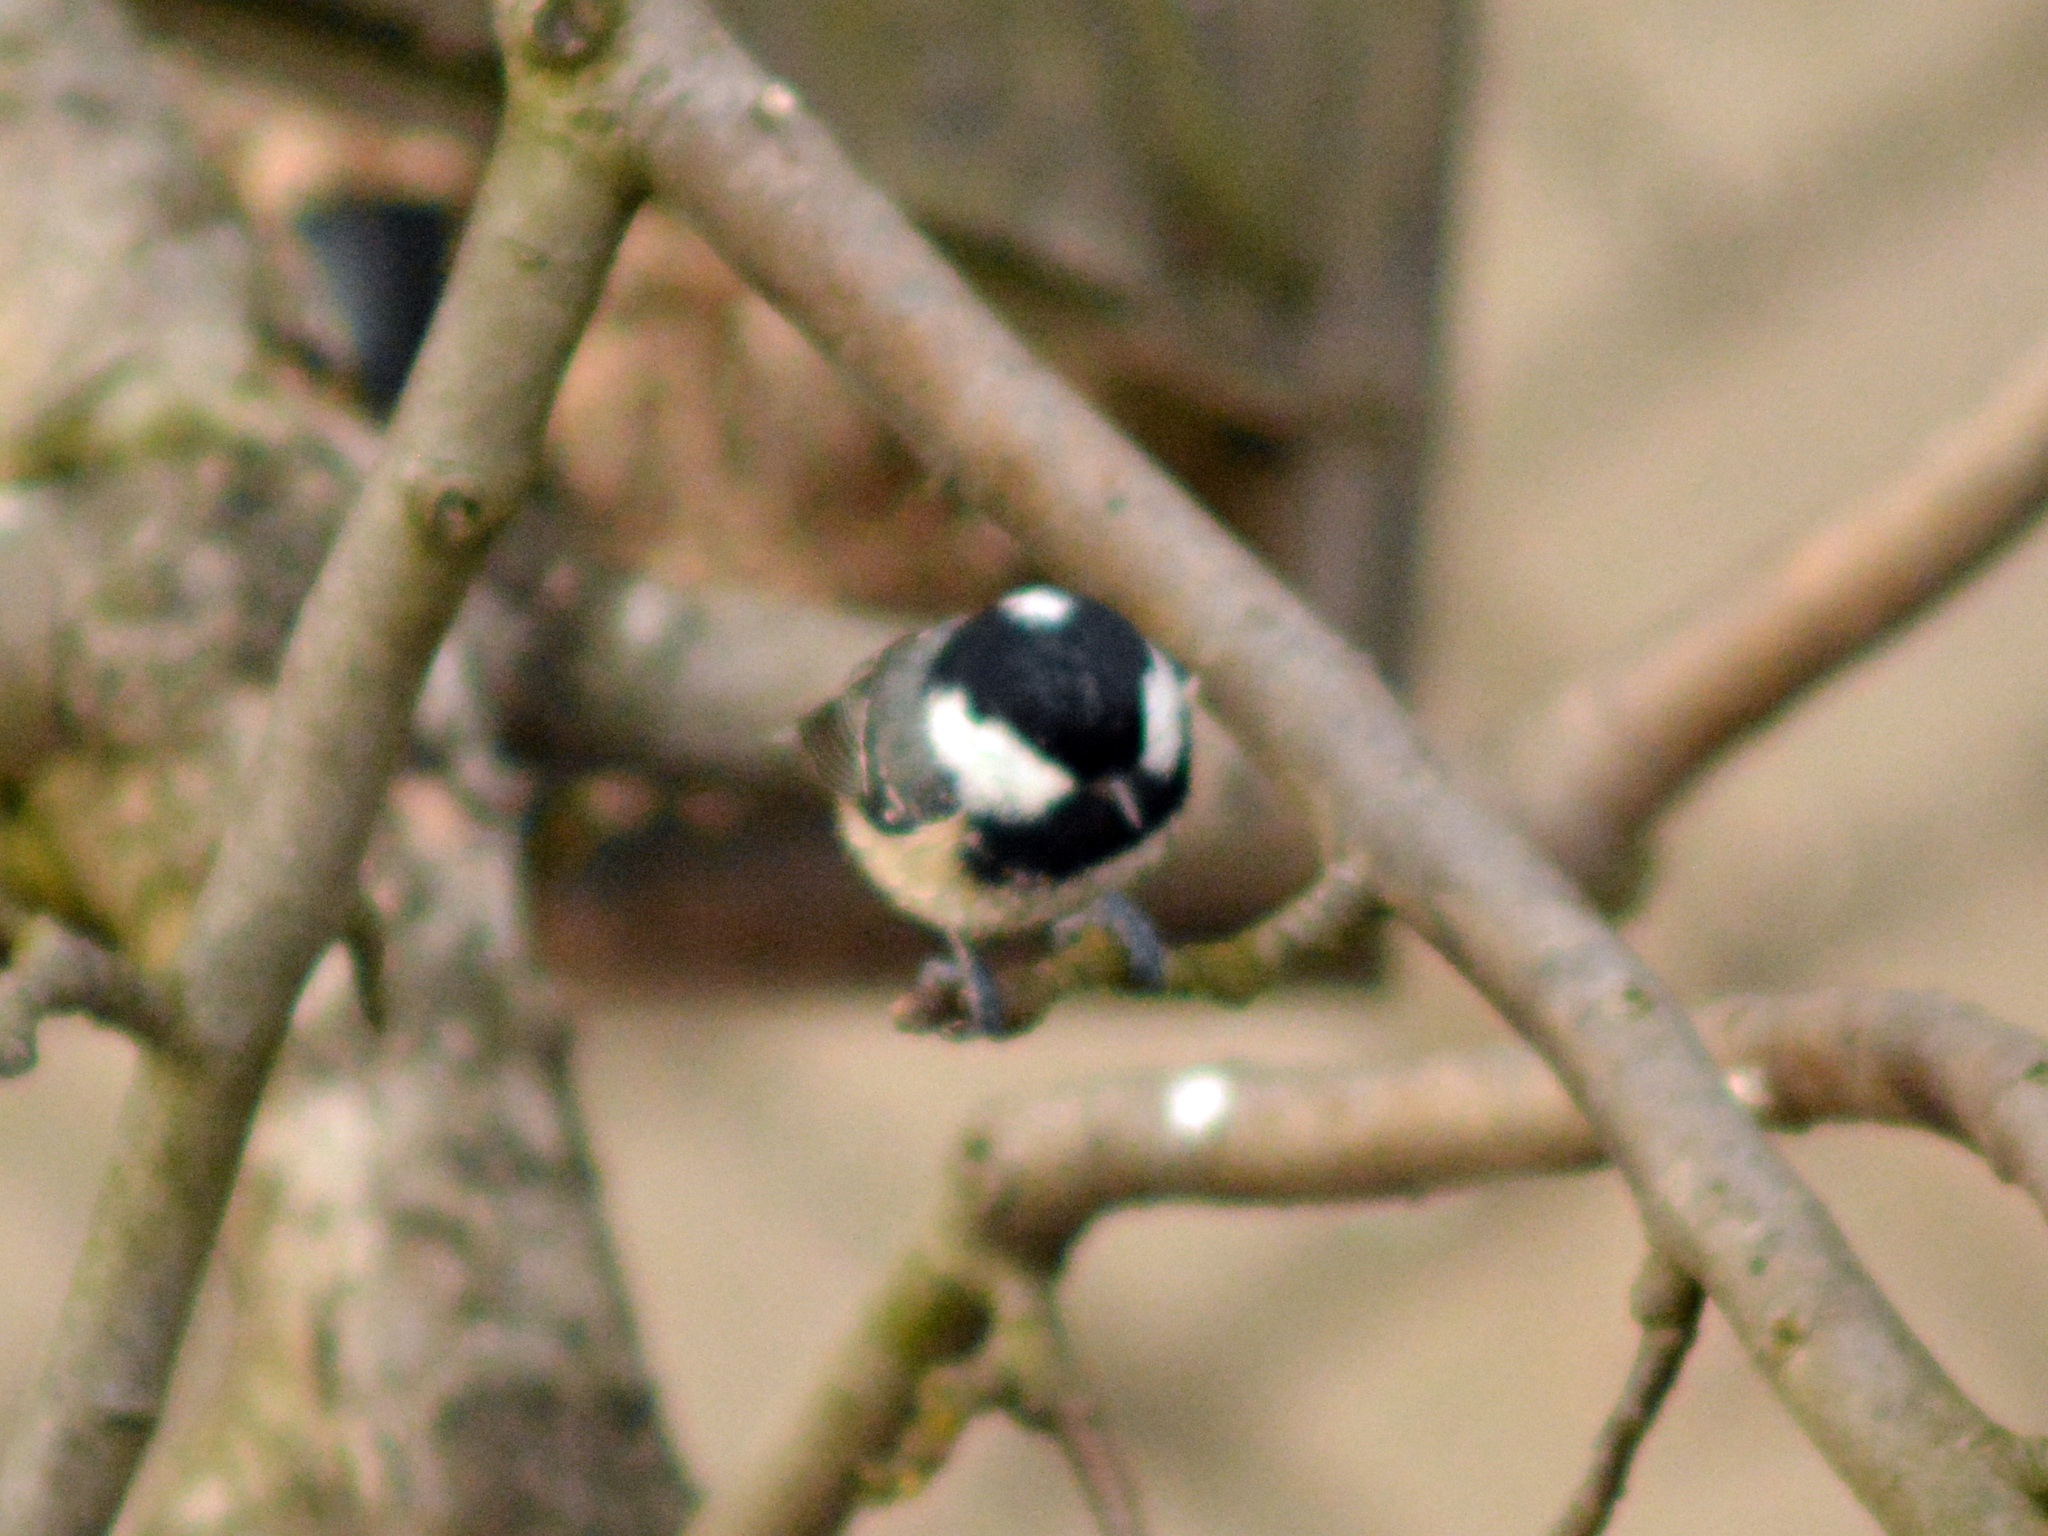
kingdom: Animalia
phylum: Chordata
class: Aves
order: Passeriformes
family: Paridae
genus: Periparus
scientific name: Periparus ater
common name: Coal tit
